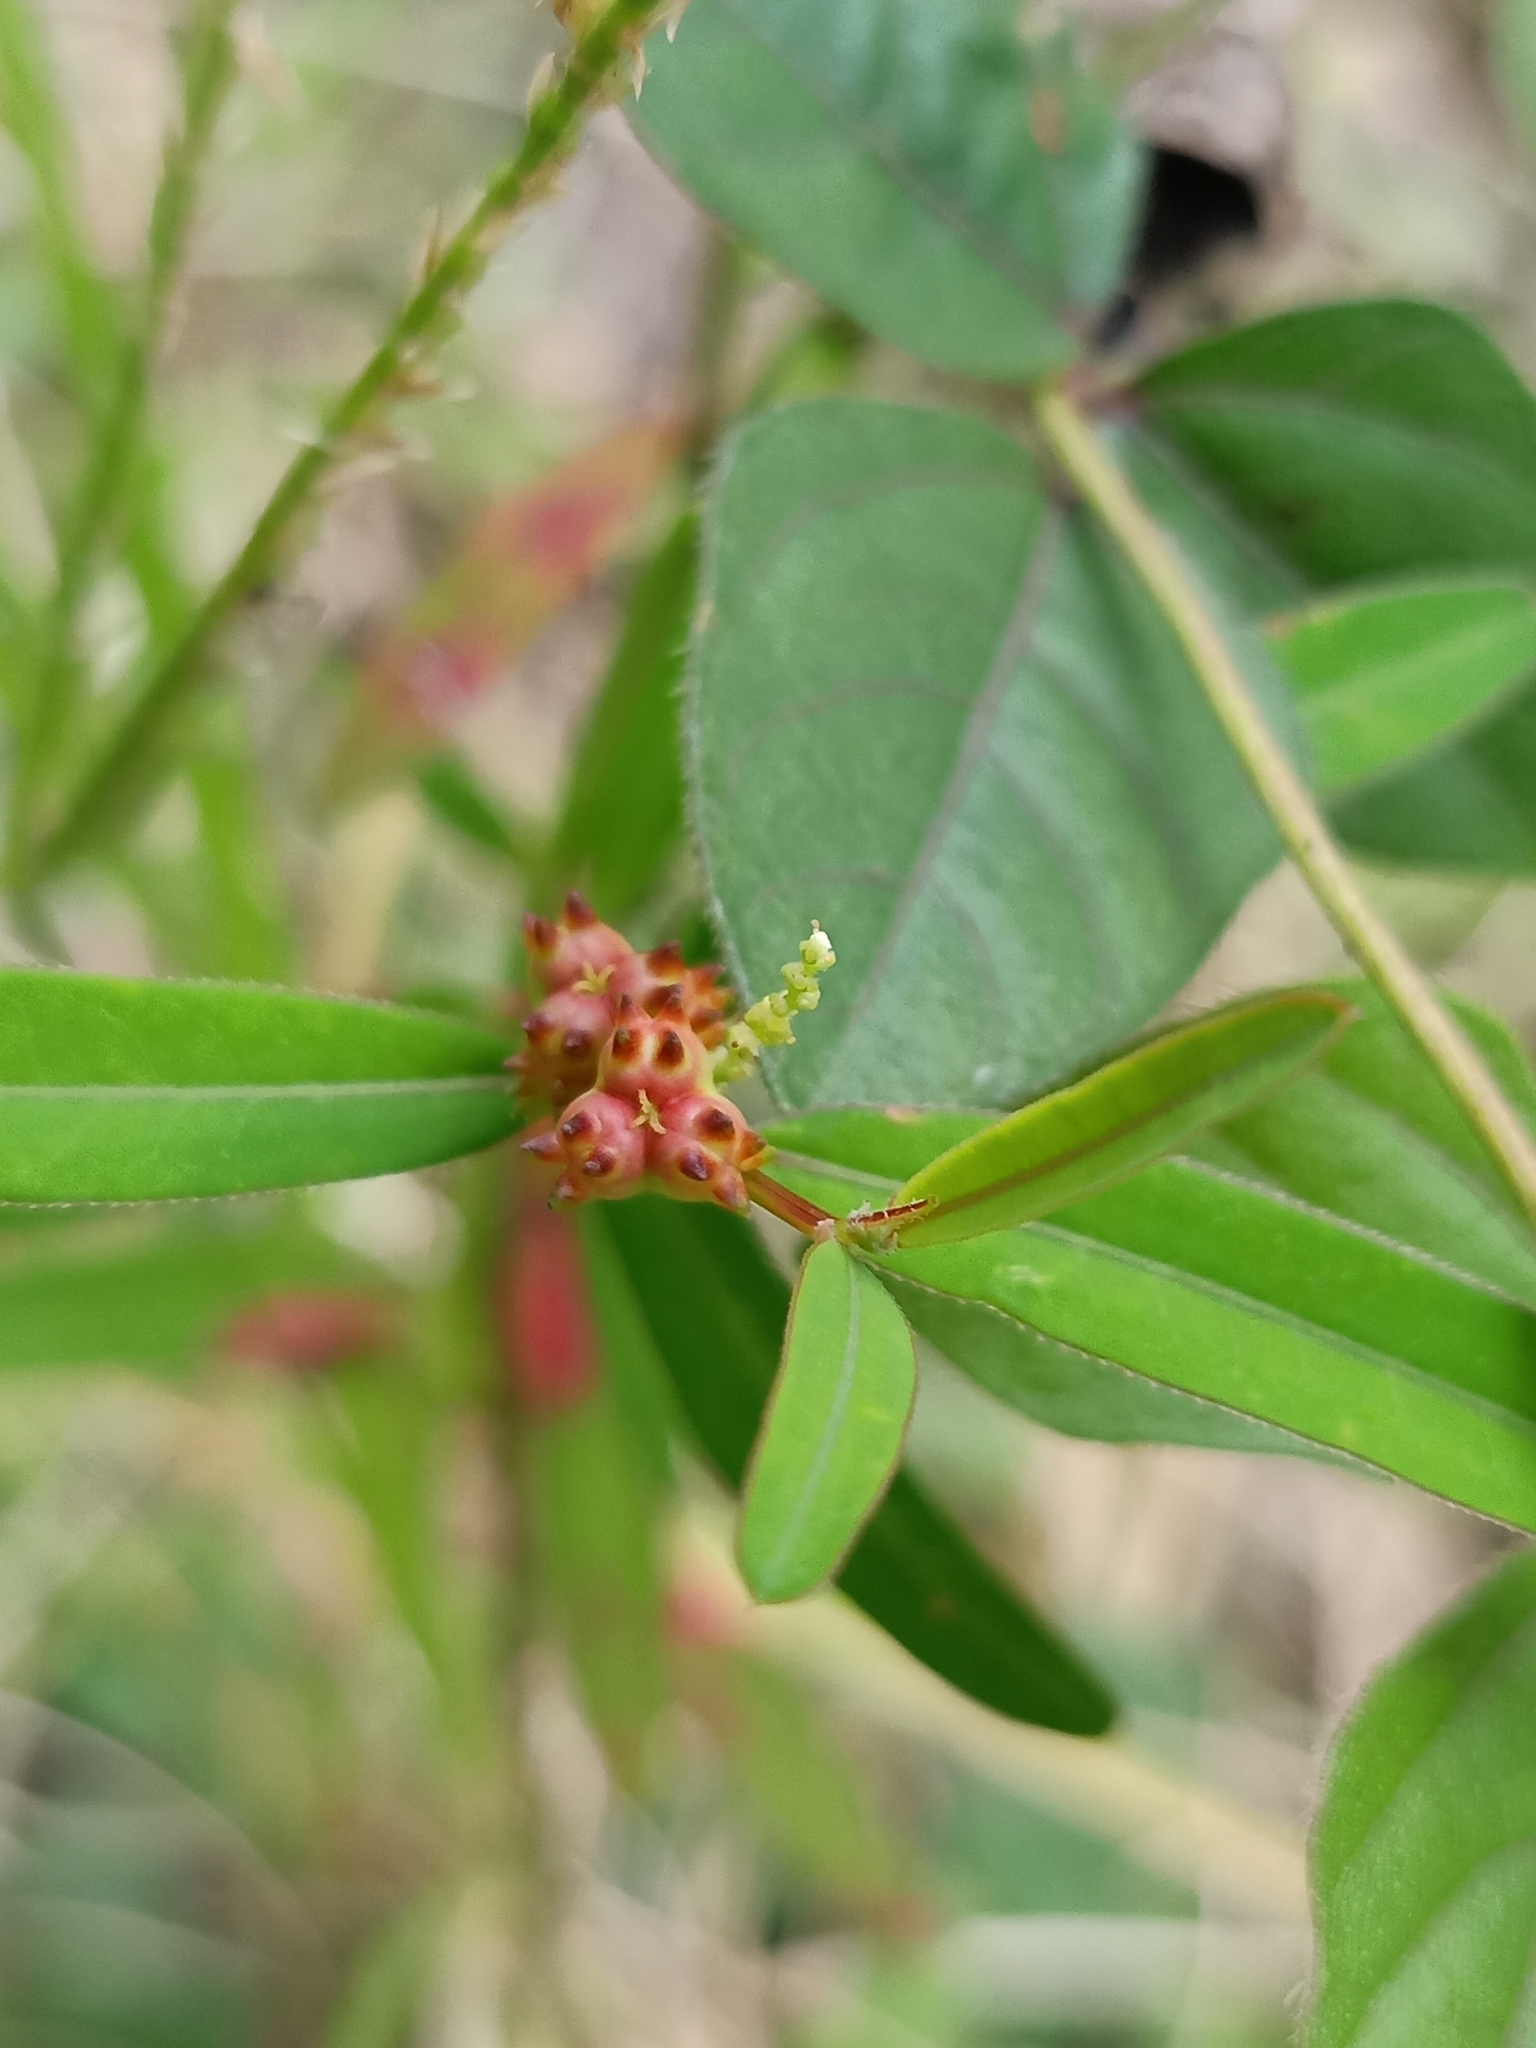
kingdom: Plantae
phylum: Tracheophyta
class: Magnoliopsida
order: Malpighiales
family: Euphorbiaceae
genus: Microstachys
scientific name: Microstachys chamaelea
